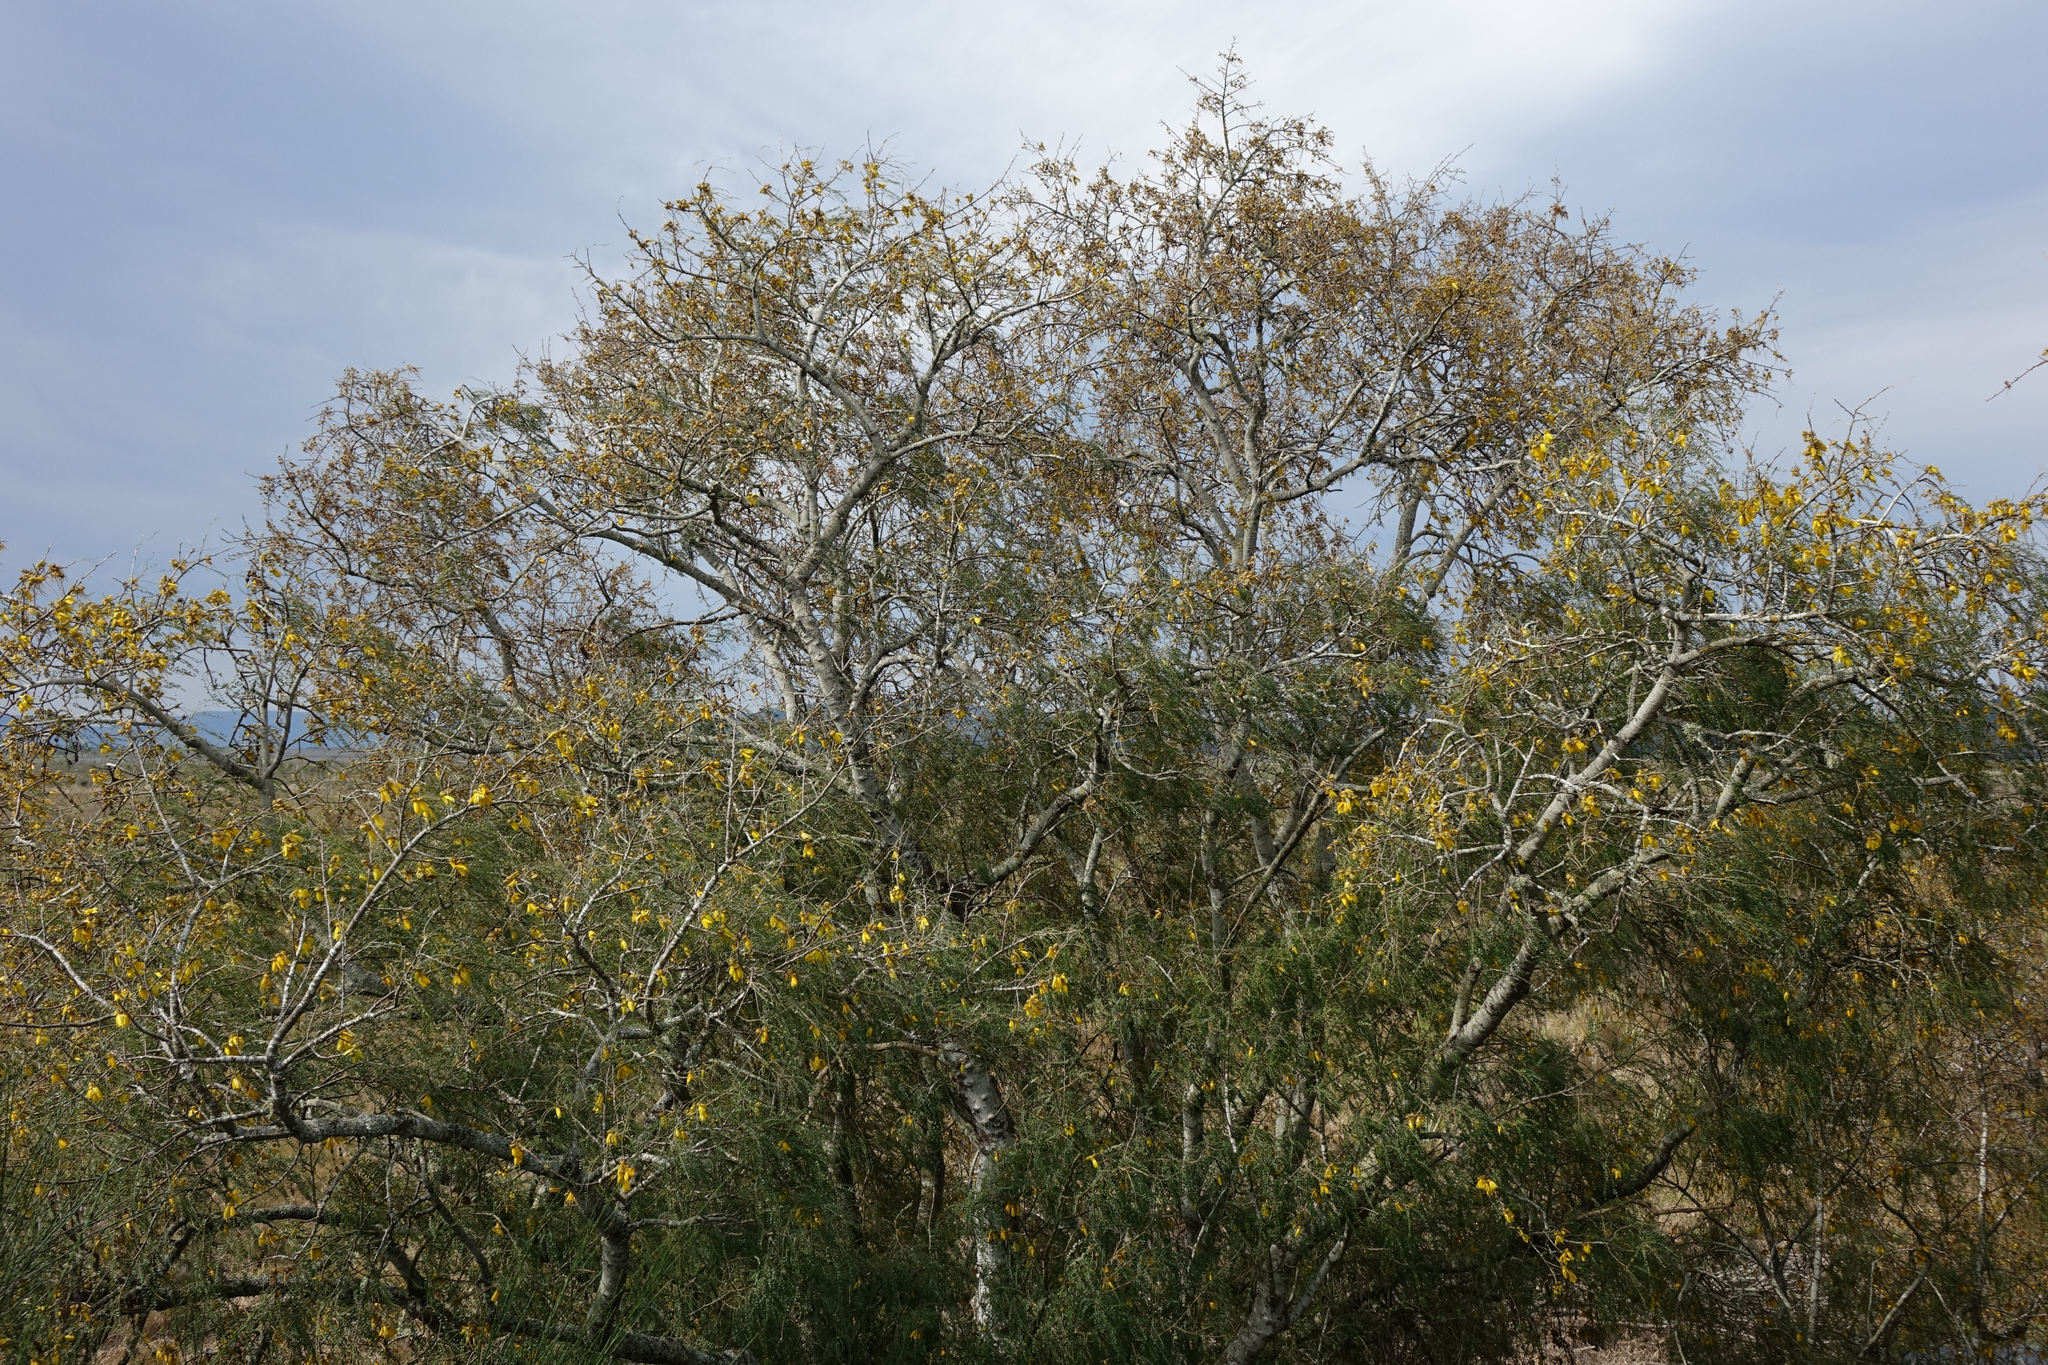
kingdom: Plantae
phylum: Tracheophyta
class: Magnoliopsida
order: Fabales
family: Fabaceae
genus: Sophora
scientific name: Sophora microphylla
